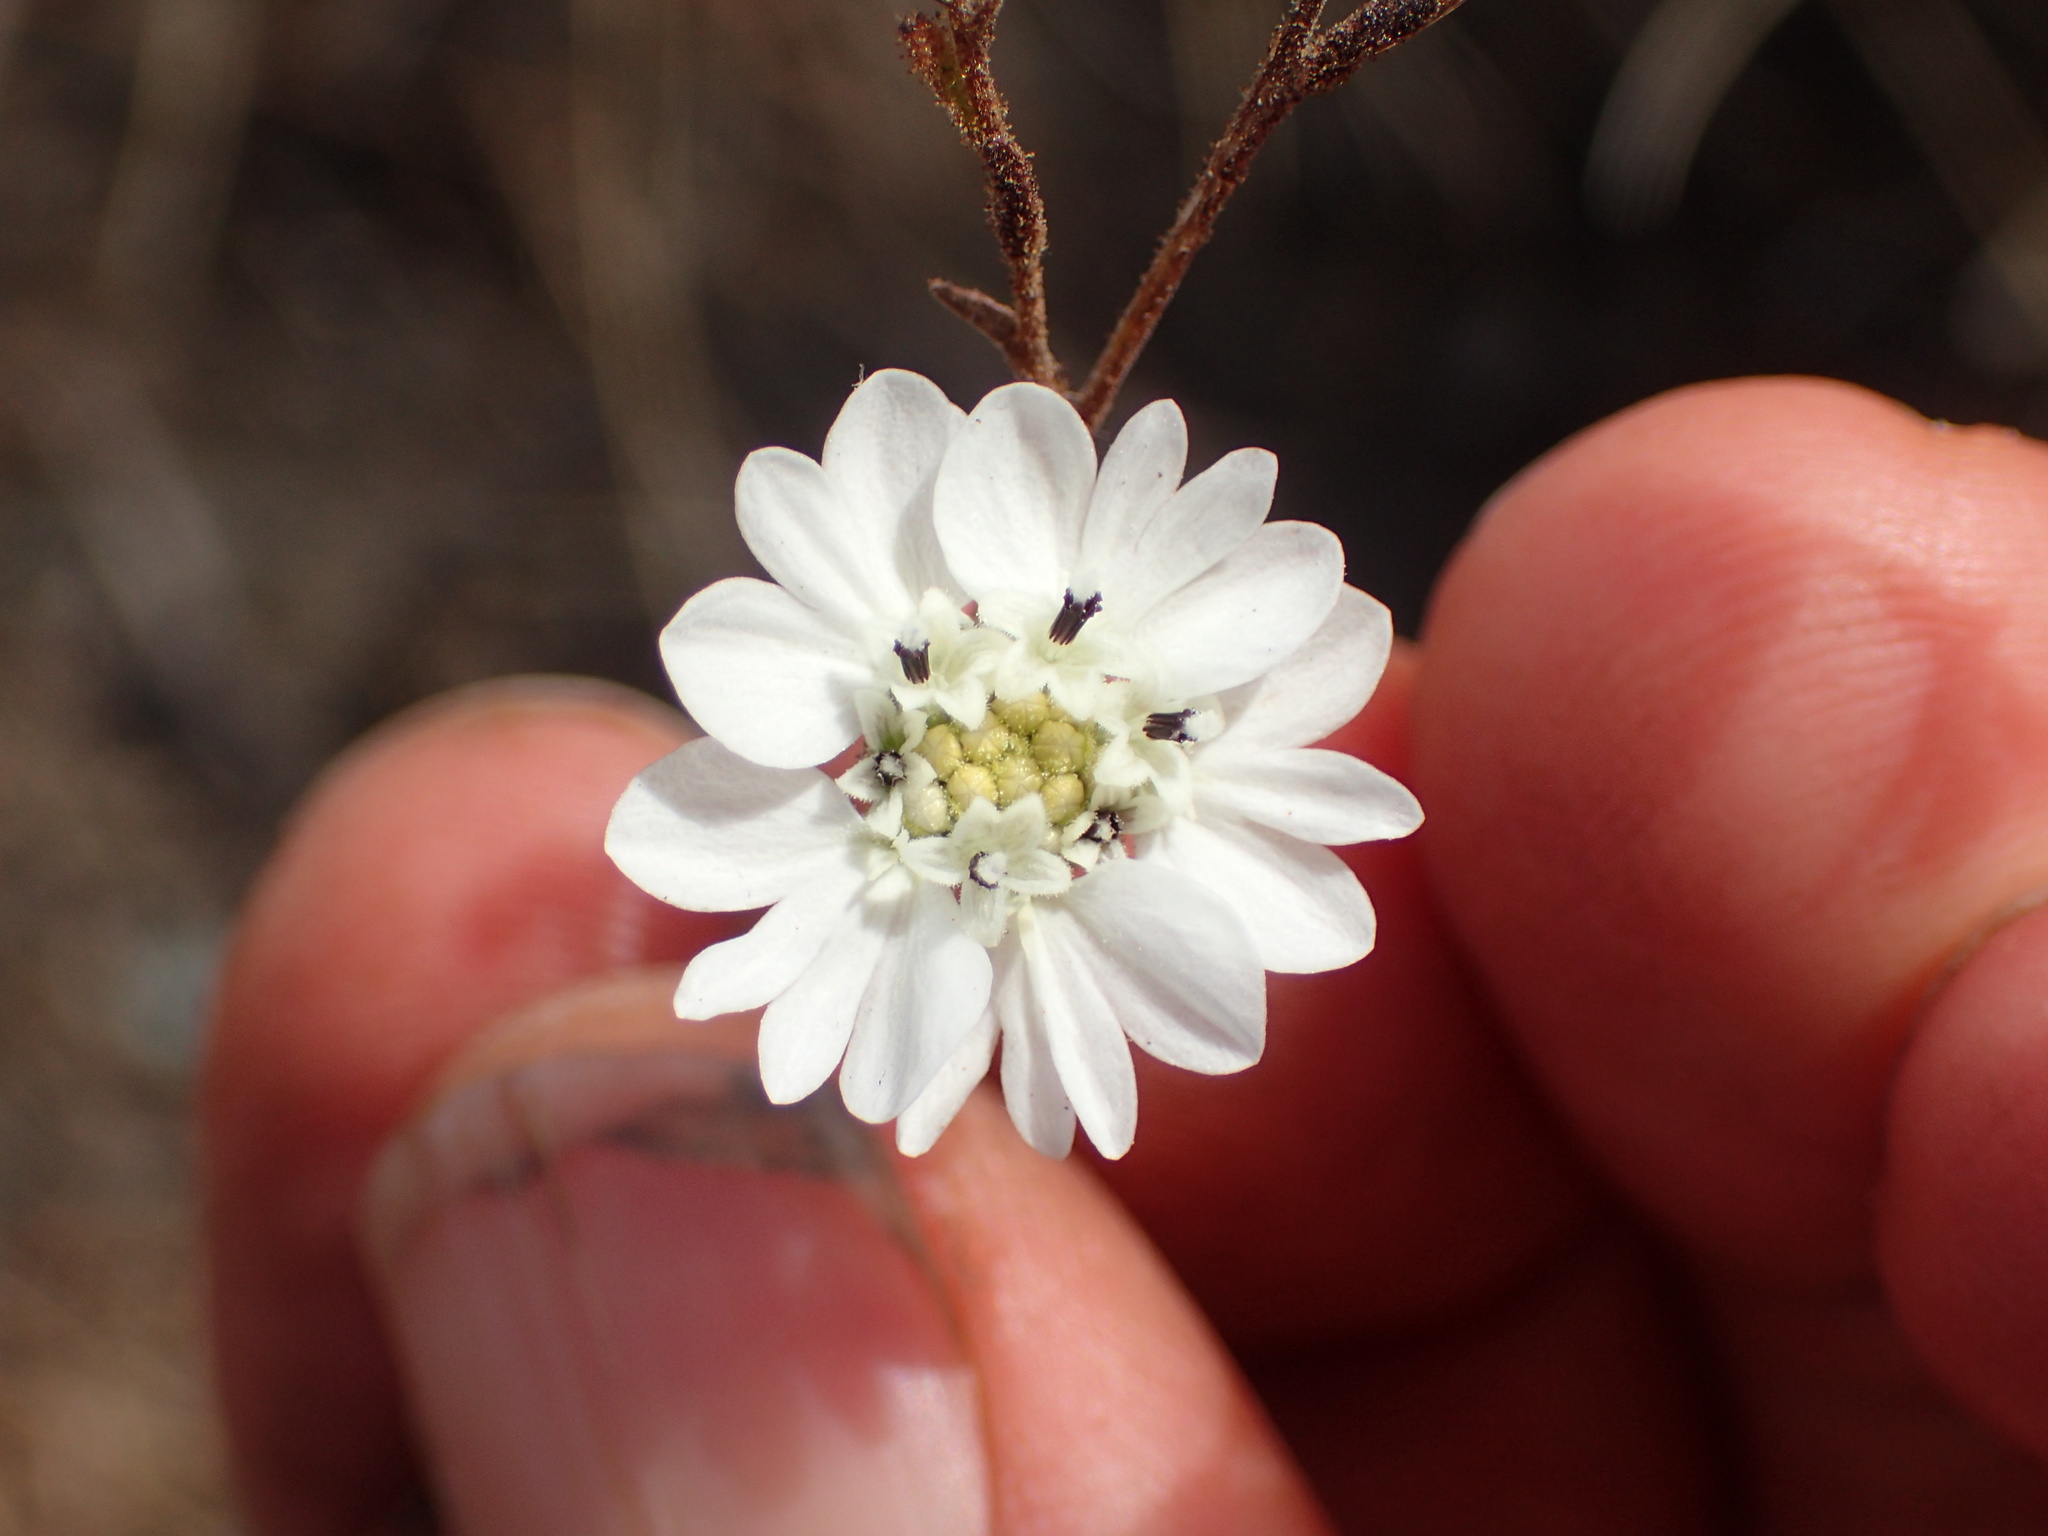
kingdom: Plantae
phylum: Tracheophyta
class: Magnoliopsida
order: Asterales
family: Asteraceae
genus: Hemizonia
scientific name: Hemizonia congesta
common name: Hayfield tarweed
